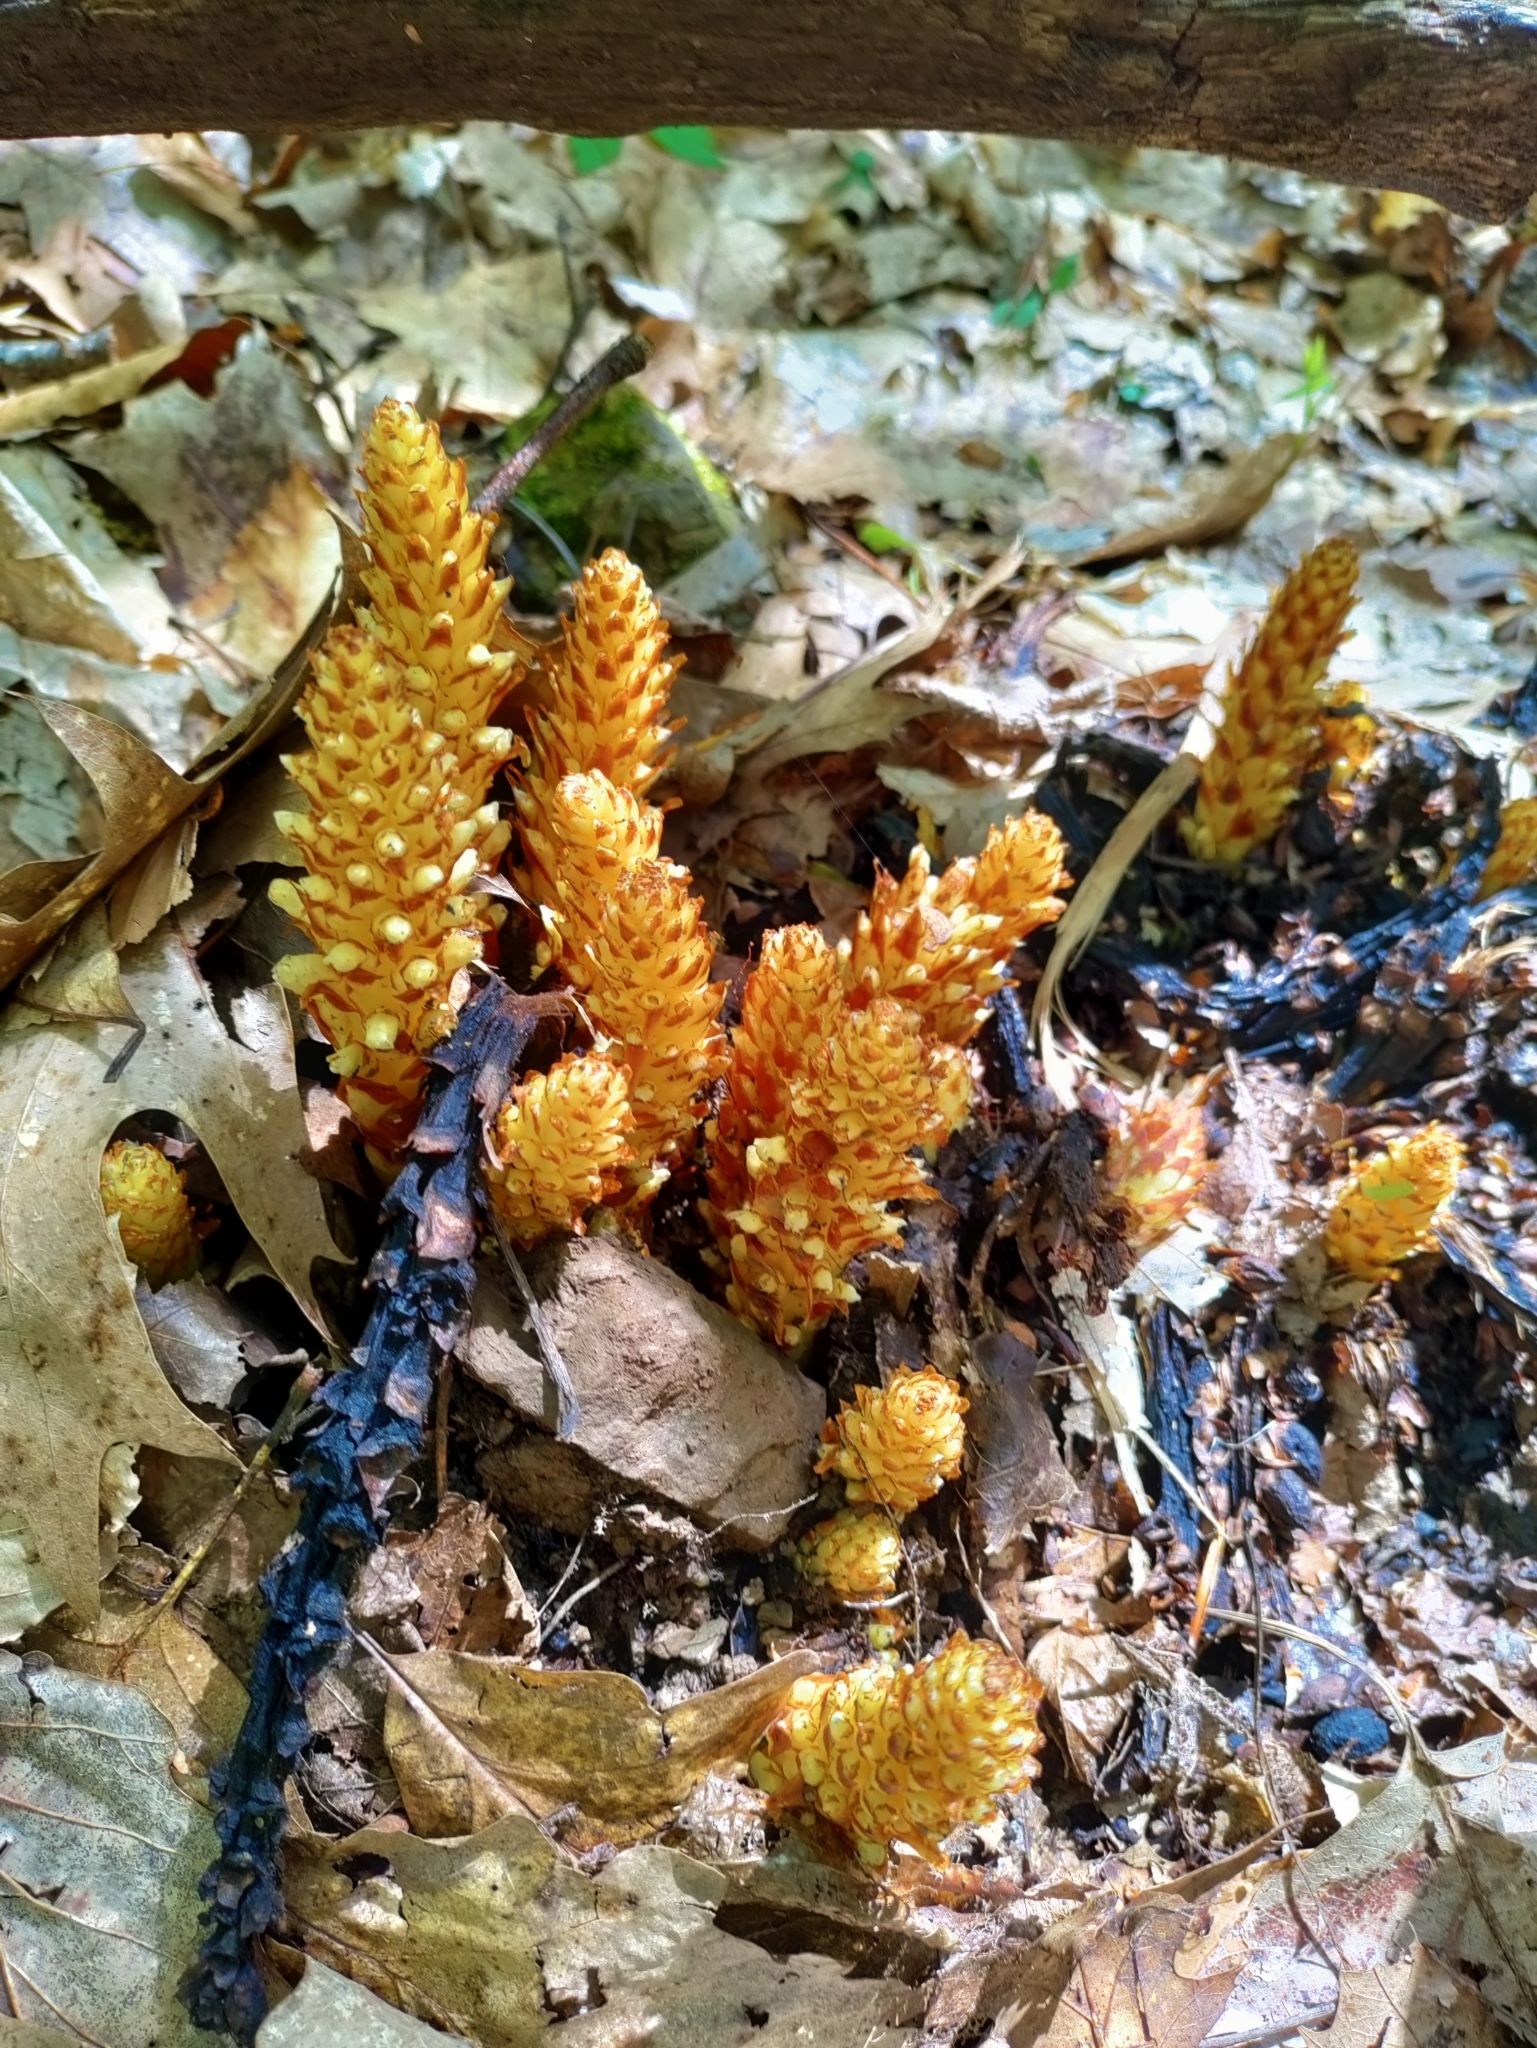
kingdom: Plantae
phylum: Tracheophyta
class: Magnoliopsida
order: Lamiales
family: Orobanchaceae
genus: Conopholis
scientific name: Conopholis americana
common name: American cancer-root
